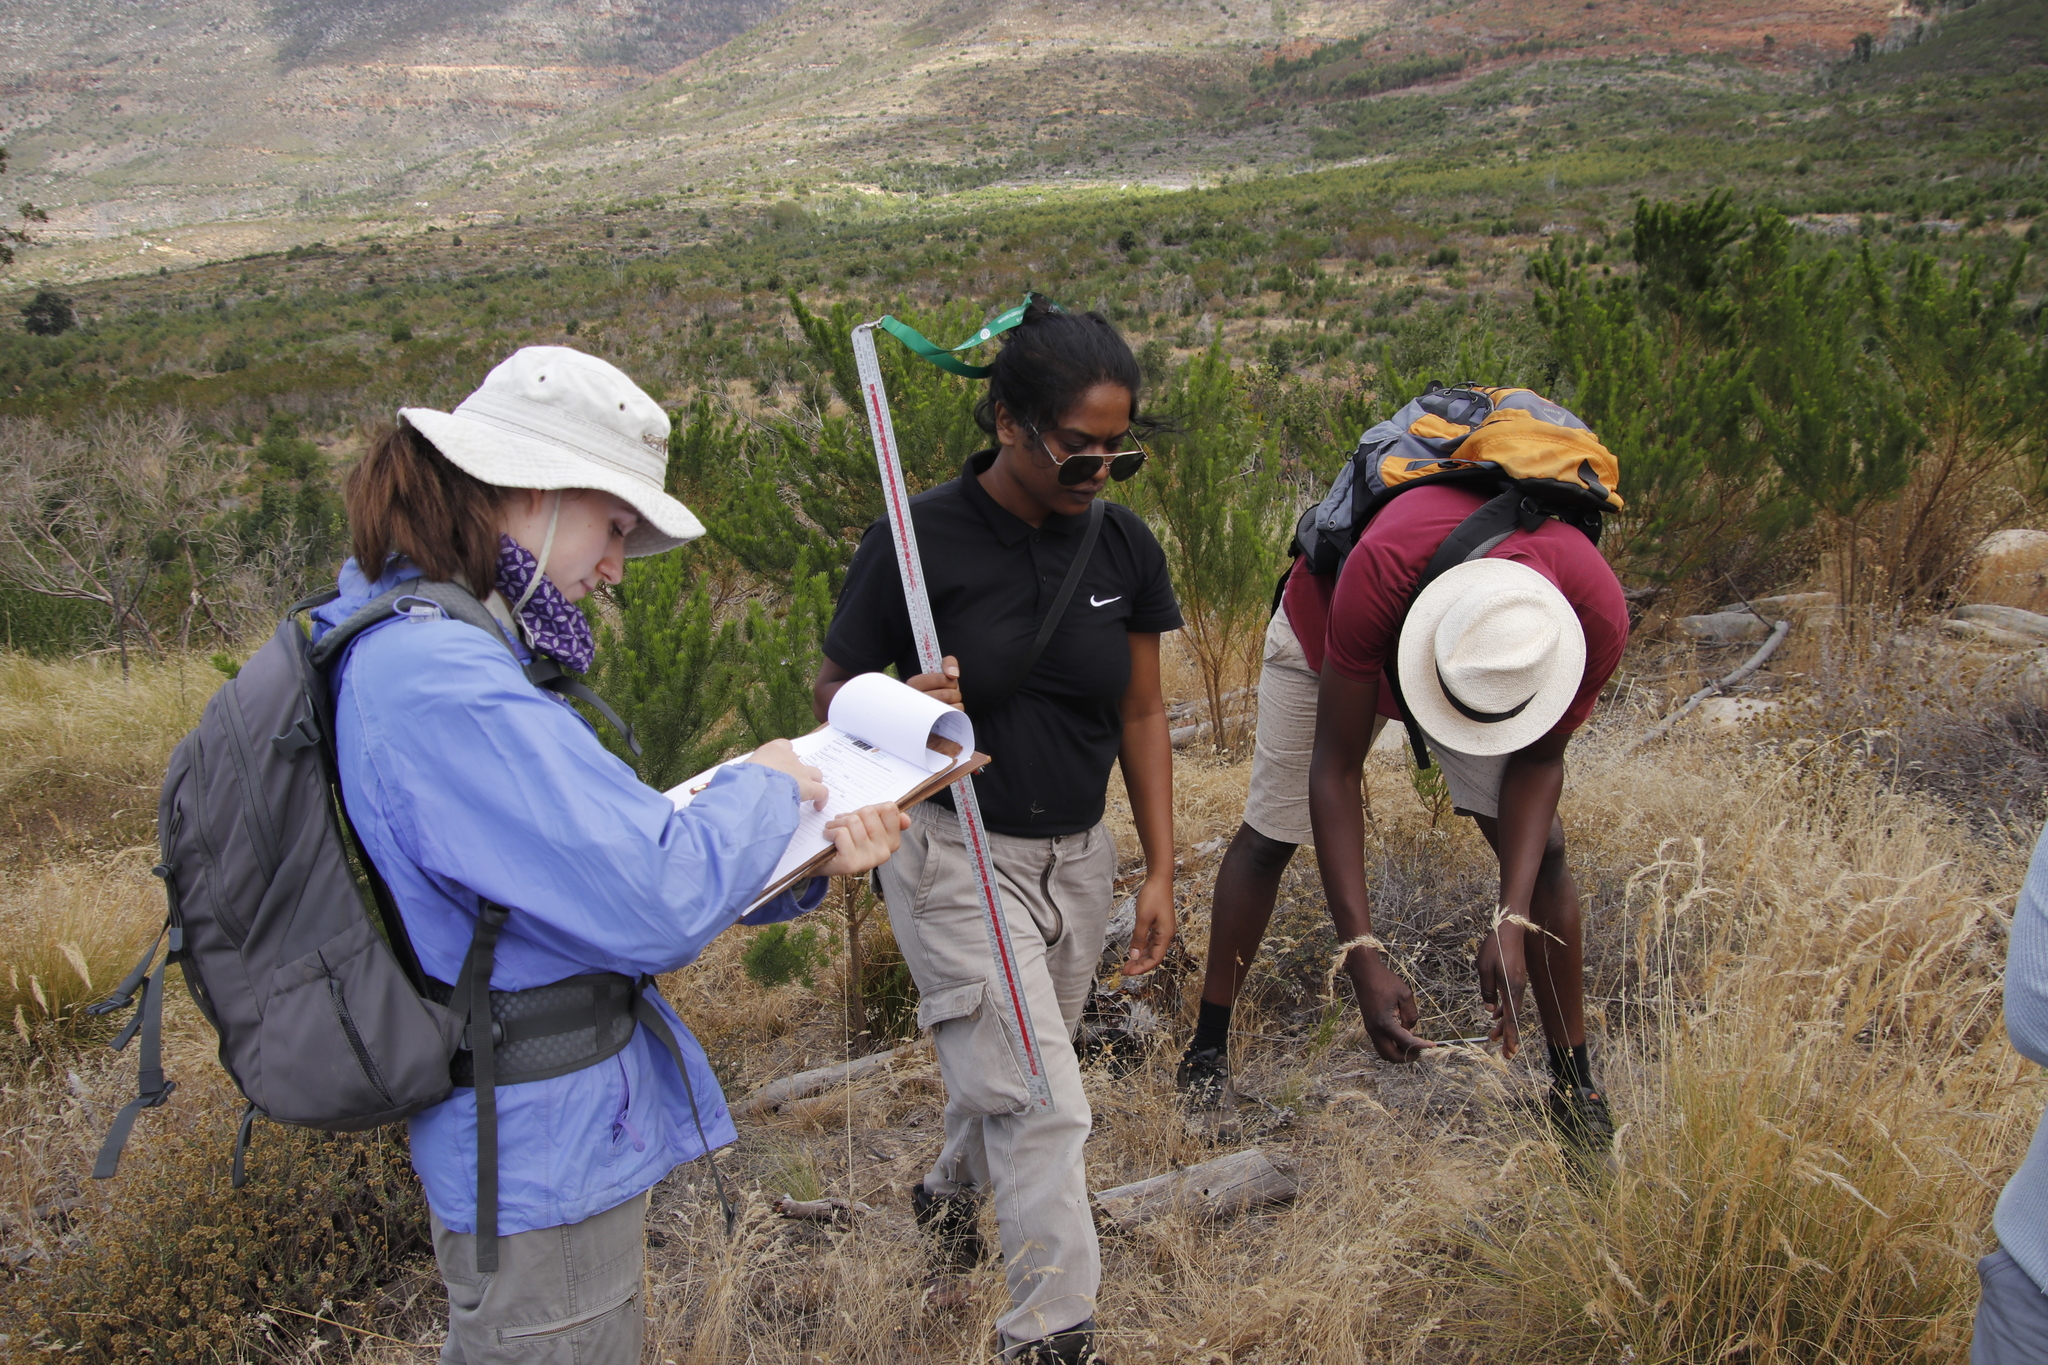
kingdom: Plantae
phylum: Tracheophyta
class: Magnoliopsida
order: Fabales
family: Fabaceae
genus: Psoralea
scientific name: Psoralea pinnata
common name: African scurfpea
